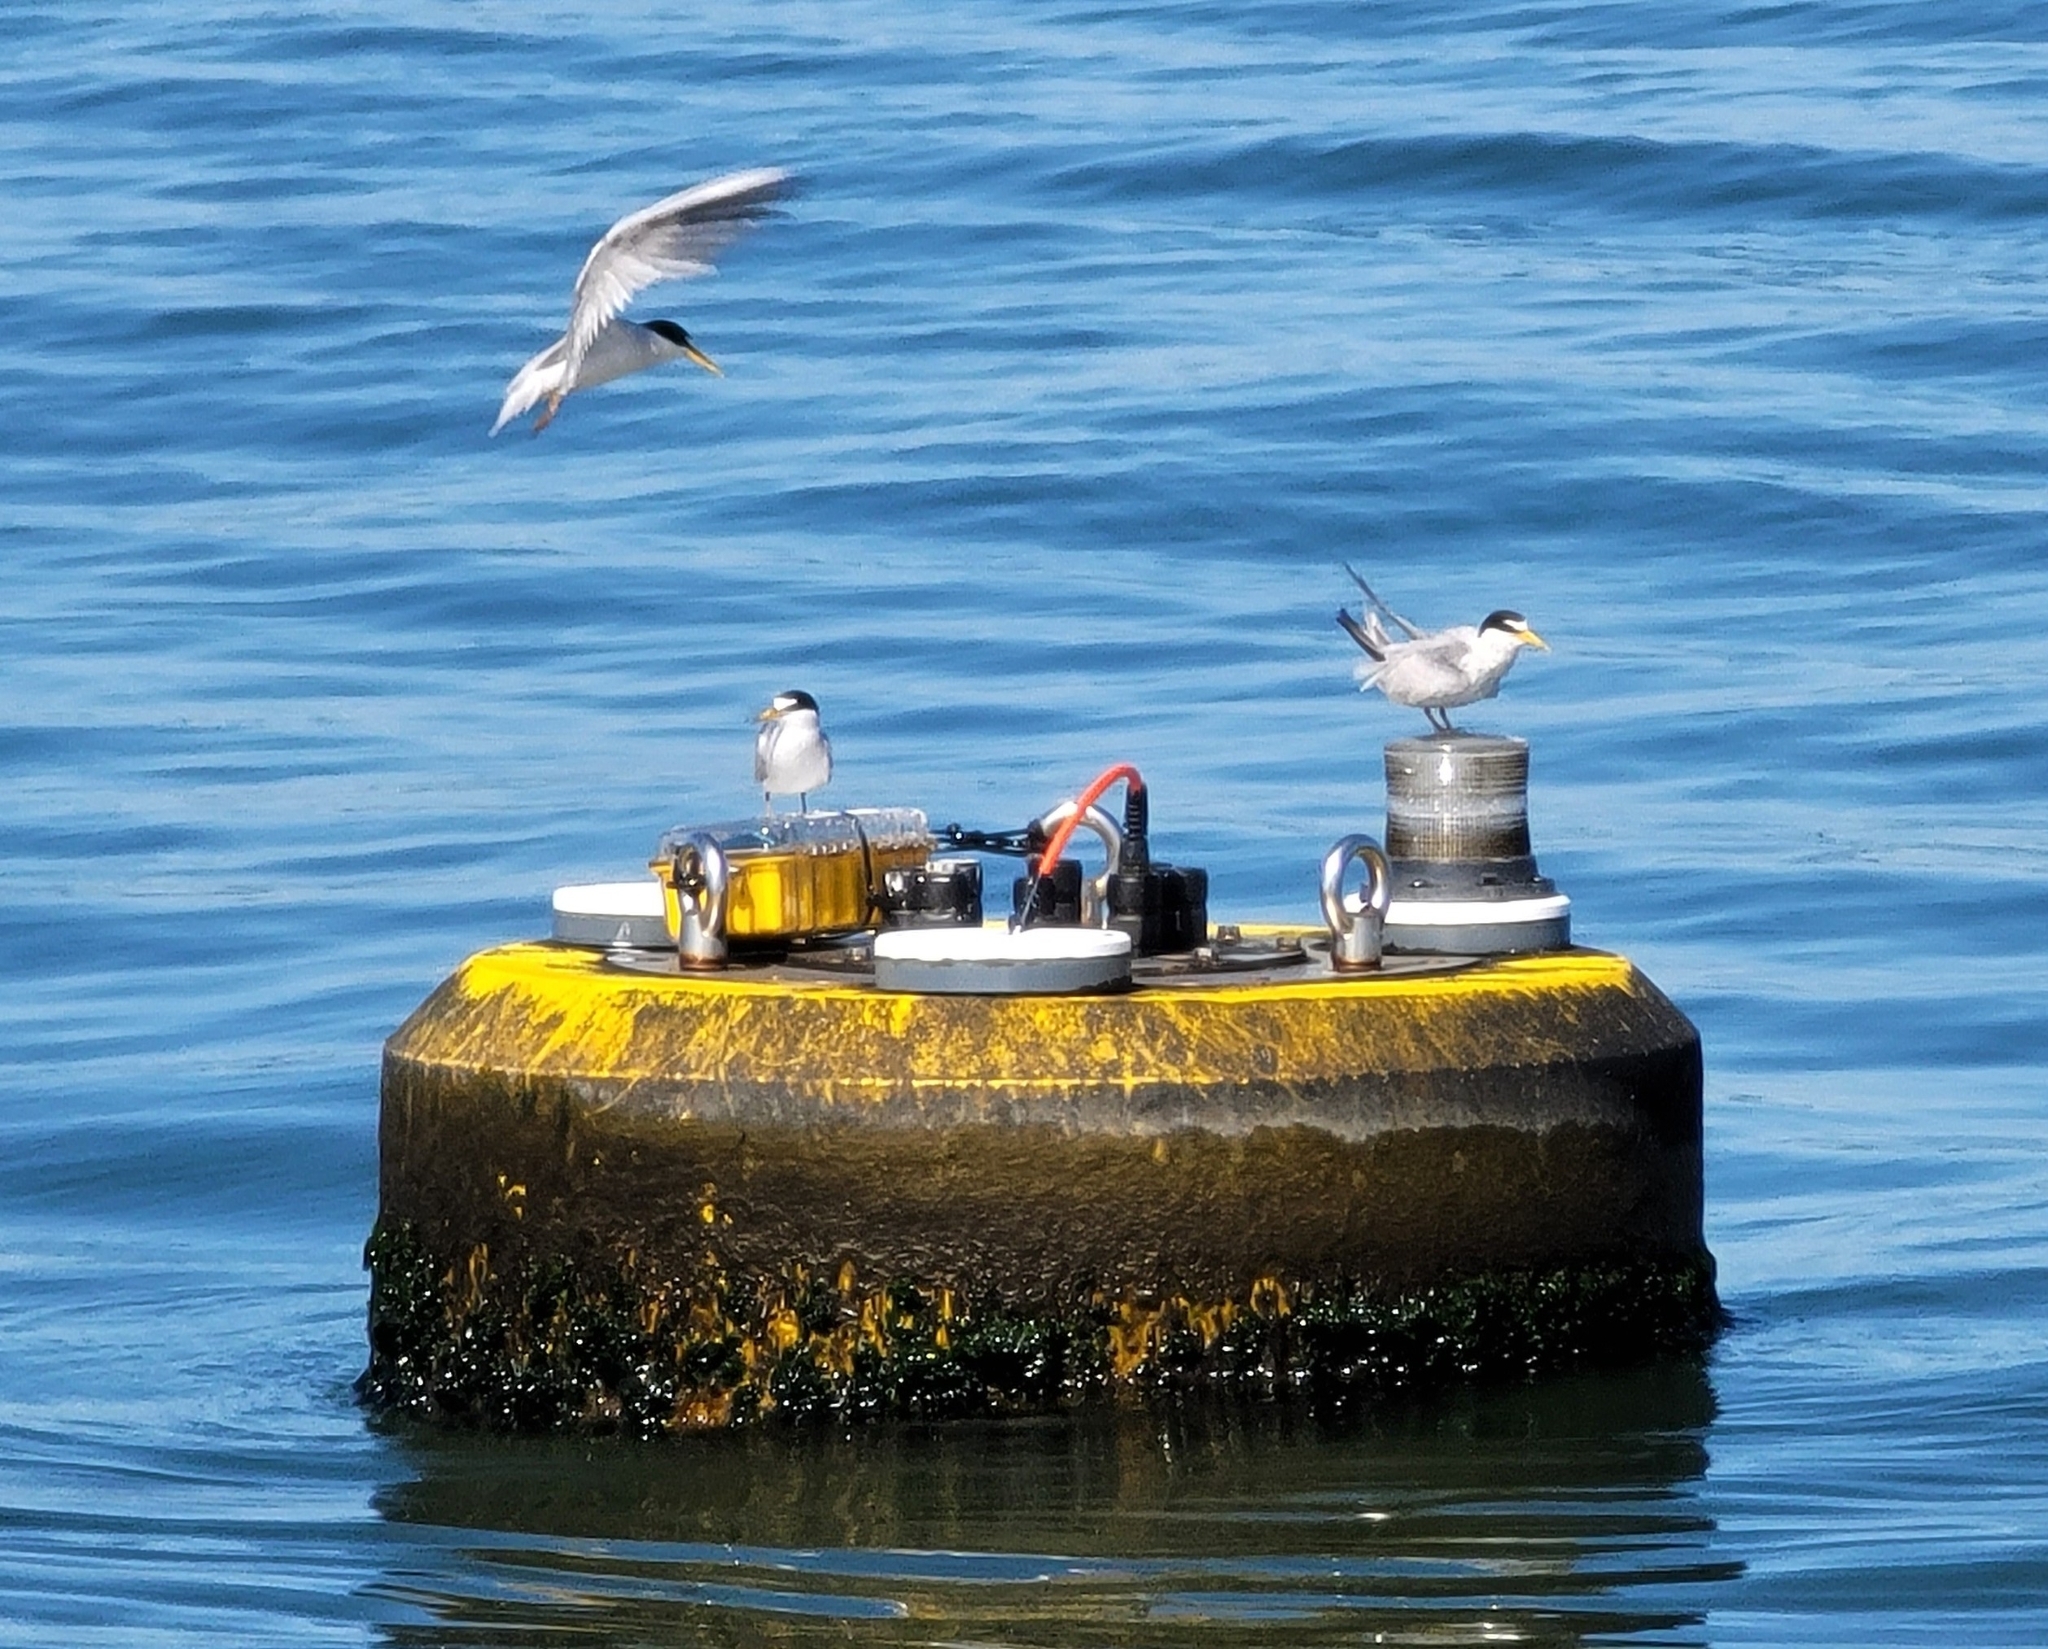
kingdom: Animalia
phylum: Chordata
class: Aves
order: Charadriiformes
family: Laridae
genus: Sternula
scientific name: Sternula antillarum
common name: Least tern
